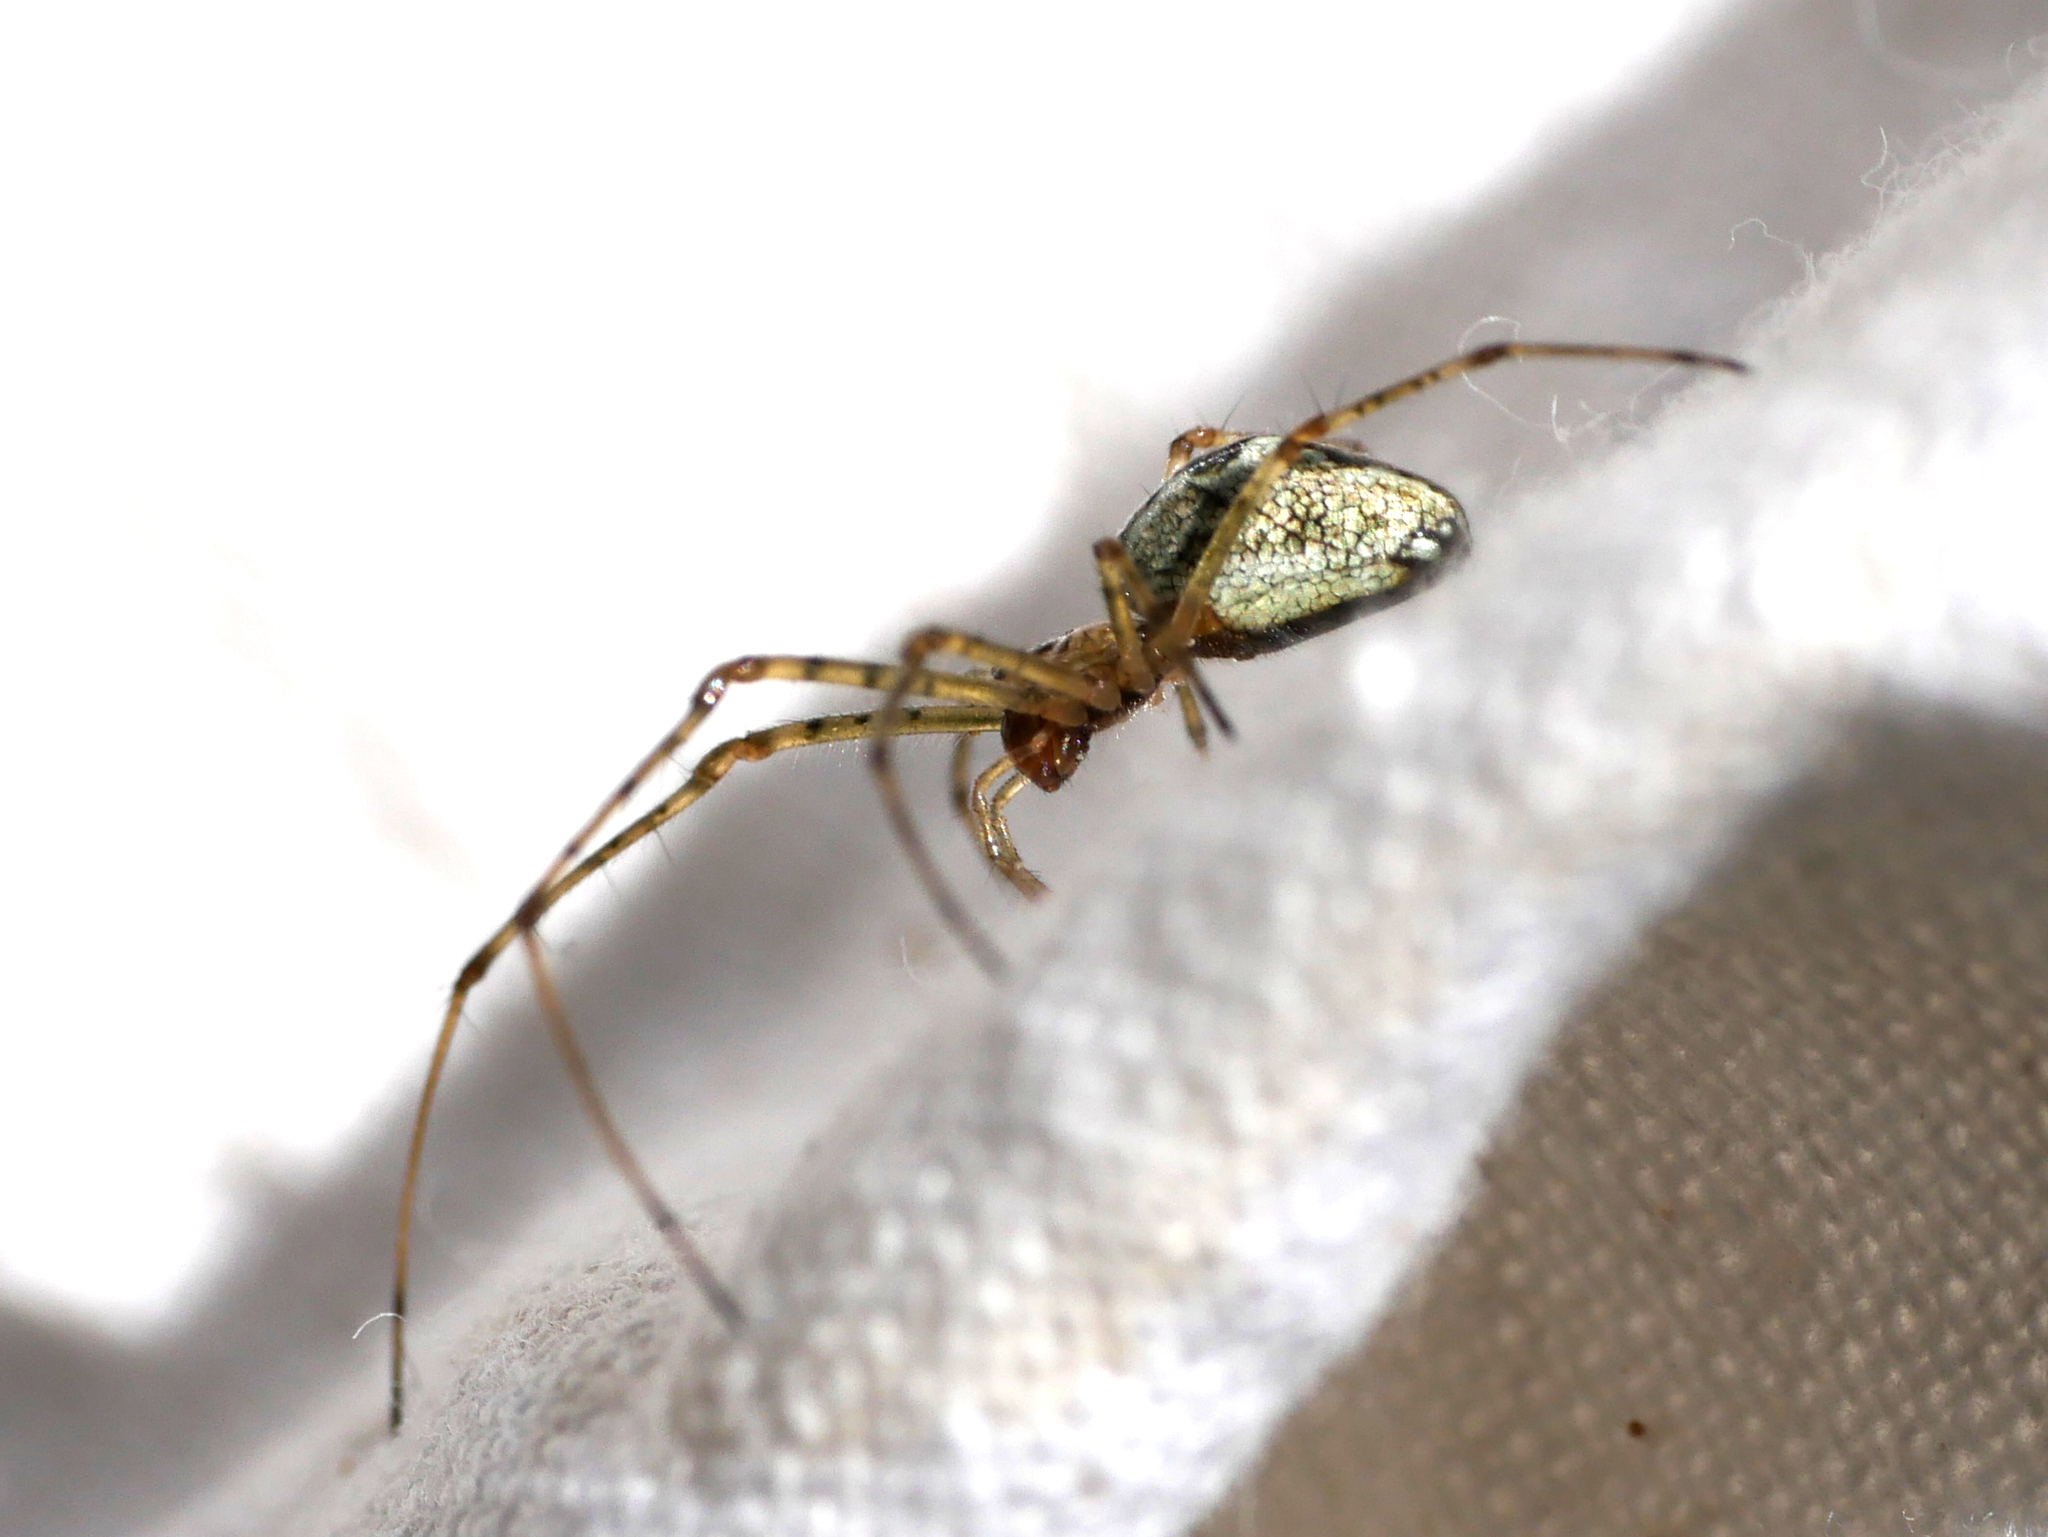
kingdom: Animalia
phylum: Arthropoda
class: Arachnida
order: Araneae
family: Tetragnathidae
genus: Tetragnatha
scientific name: Tetragnatha obtusa
